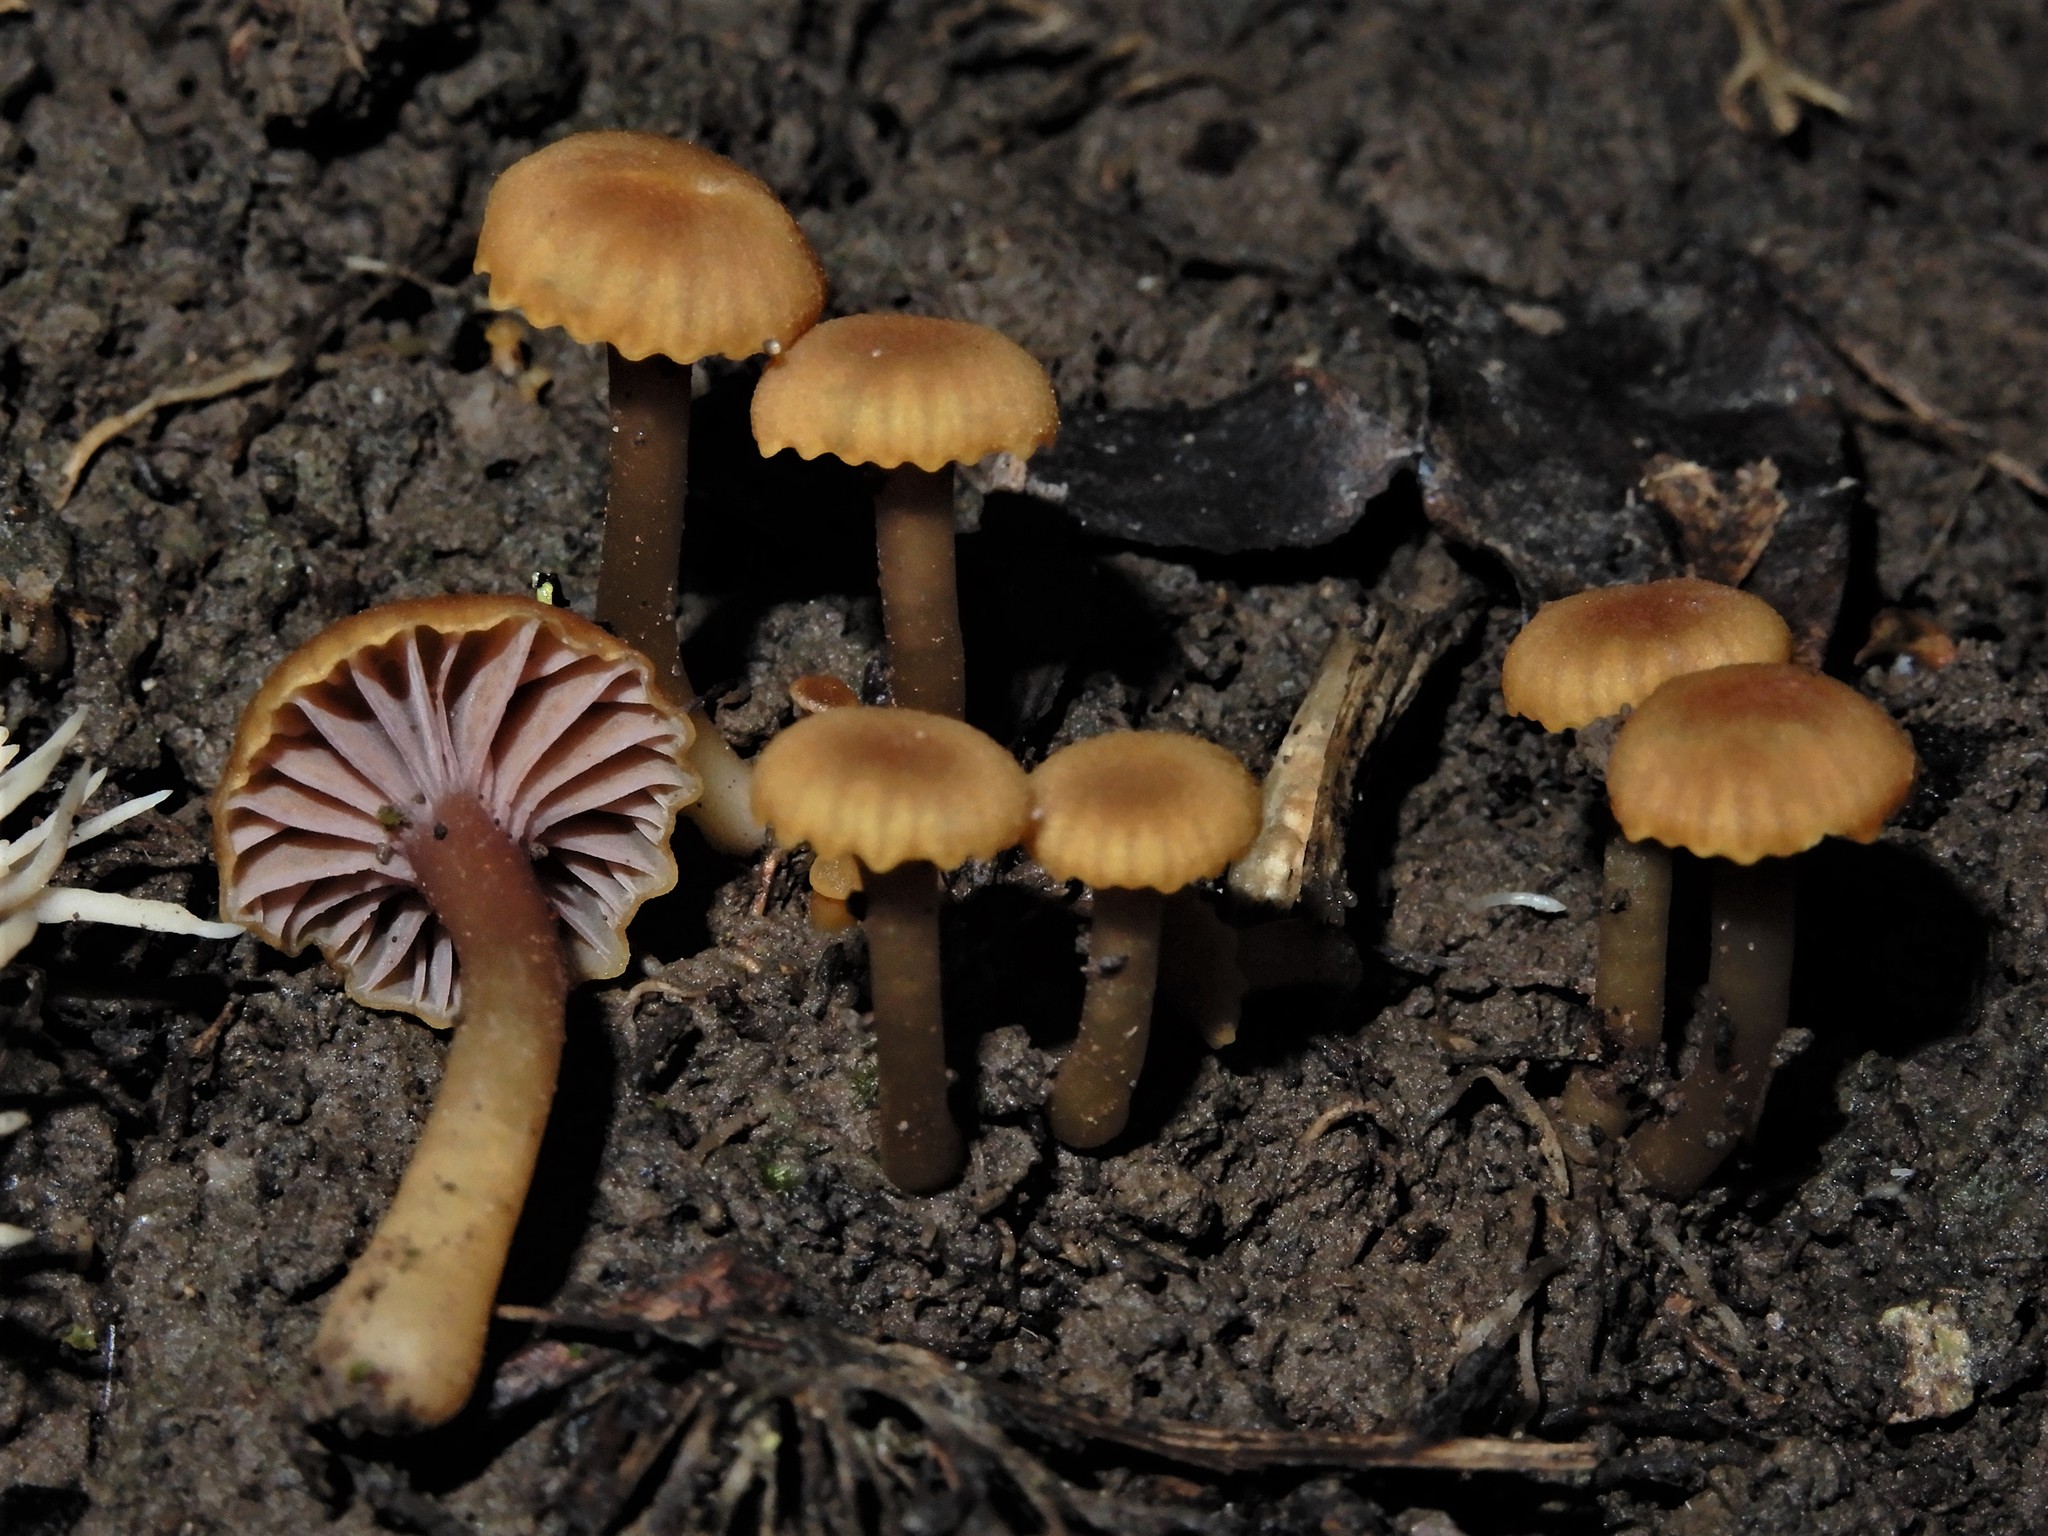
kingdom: Fungi
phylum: Basidiomycota
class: Agaricomycetes
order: Agaricales
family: Hygrophoraceae
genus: Hygrocybe
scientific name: Hygrocybe lilaceolamellata
